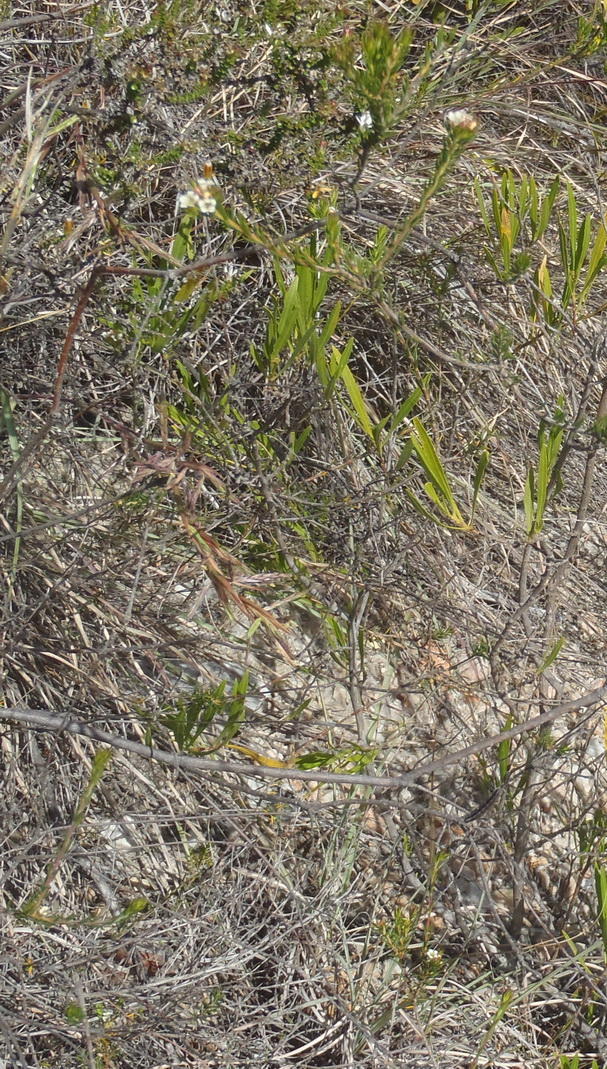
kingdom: Plantae
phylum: Tracheophyta
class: Magnoliopsida
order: Sapindales
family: Rutaceae
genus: Diosma
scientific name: Diosma rourkei
